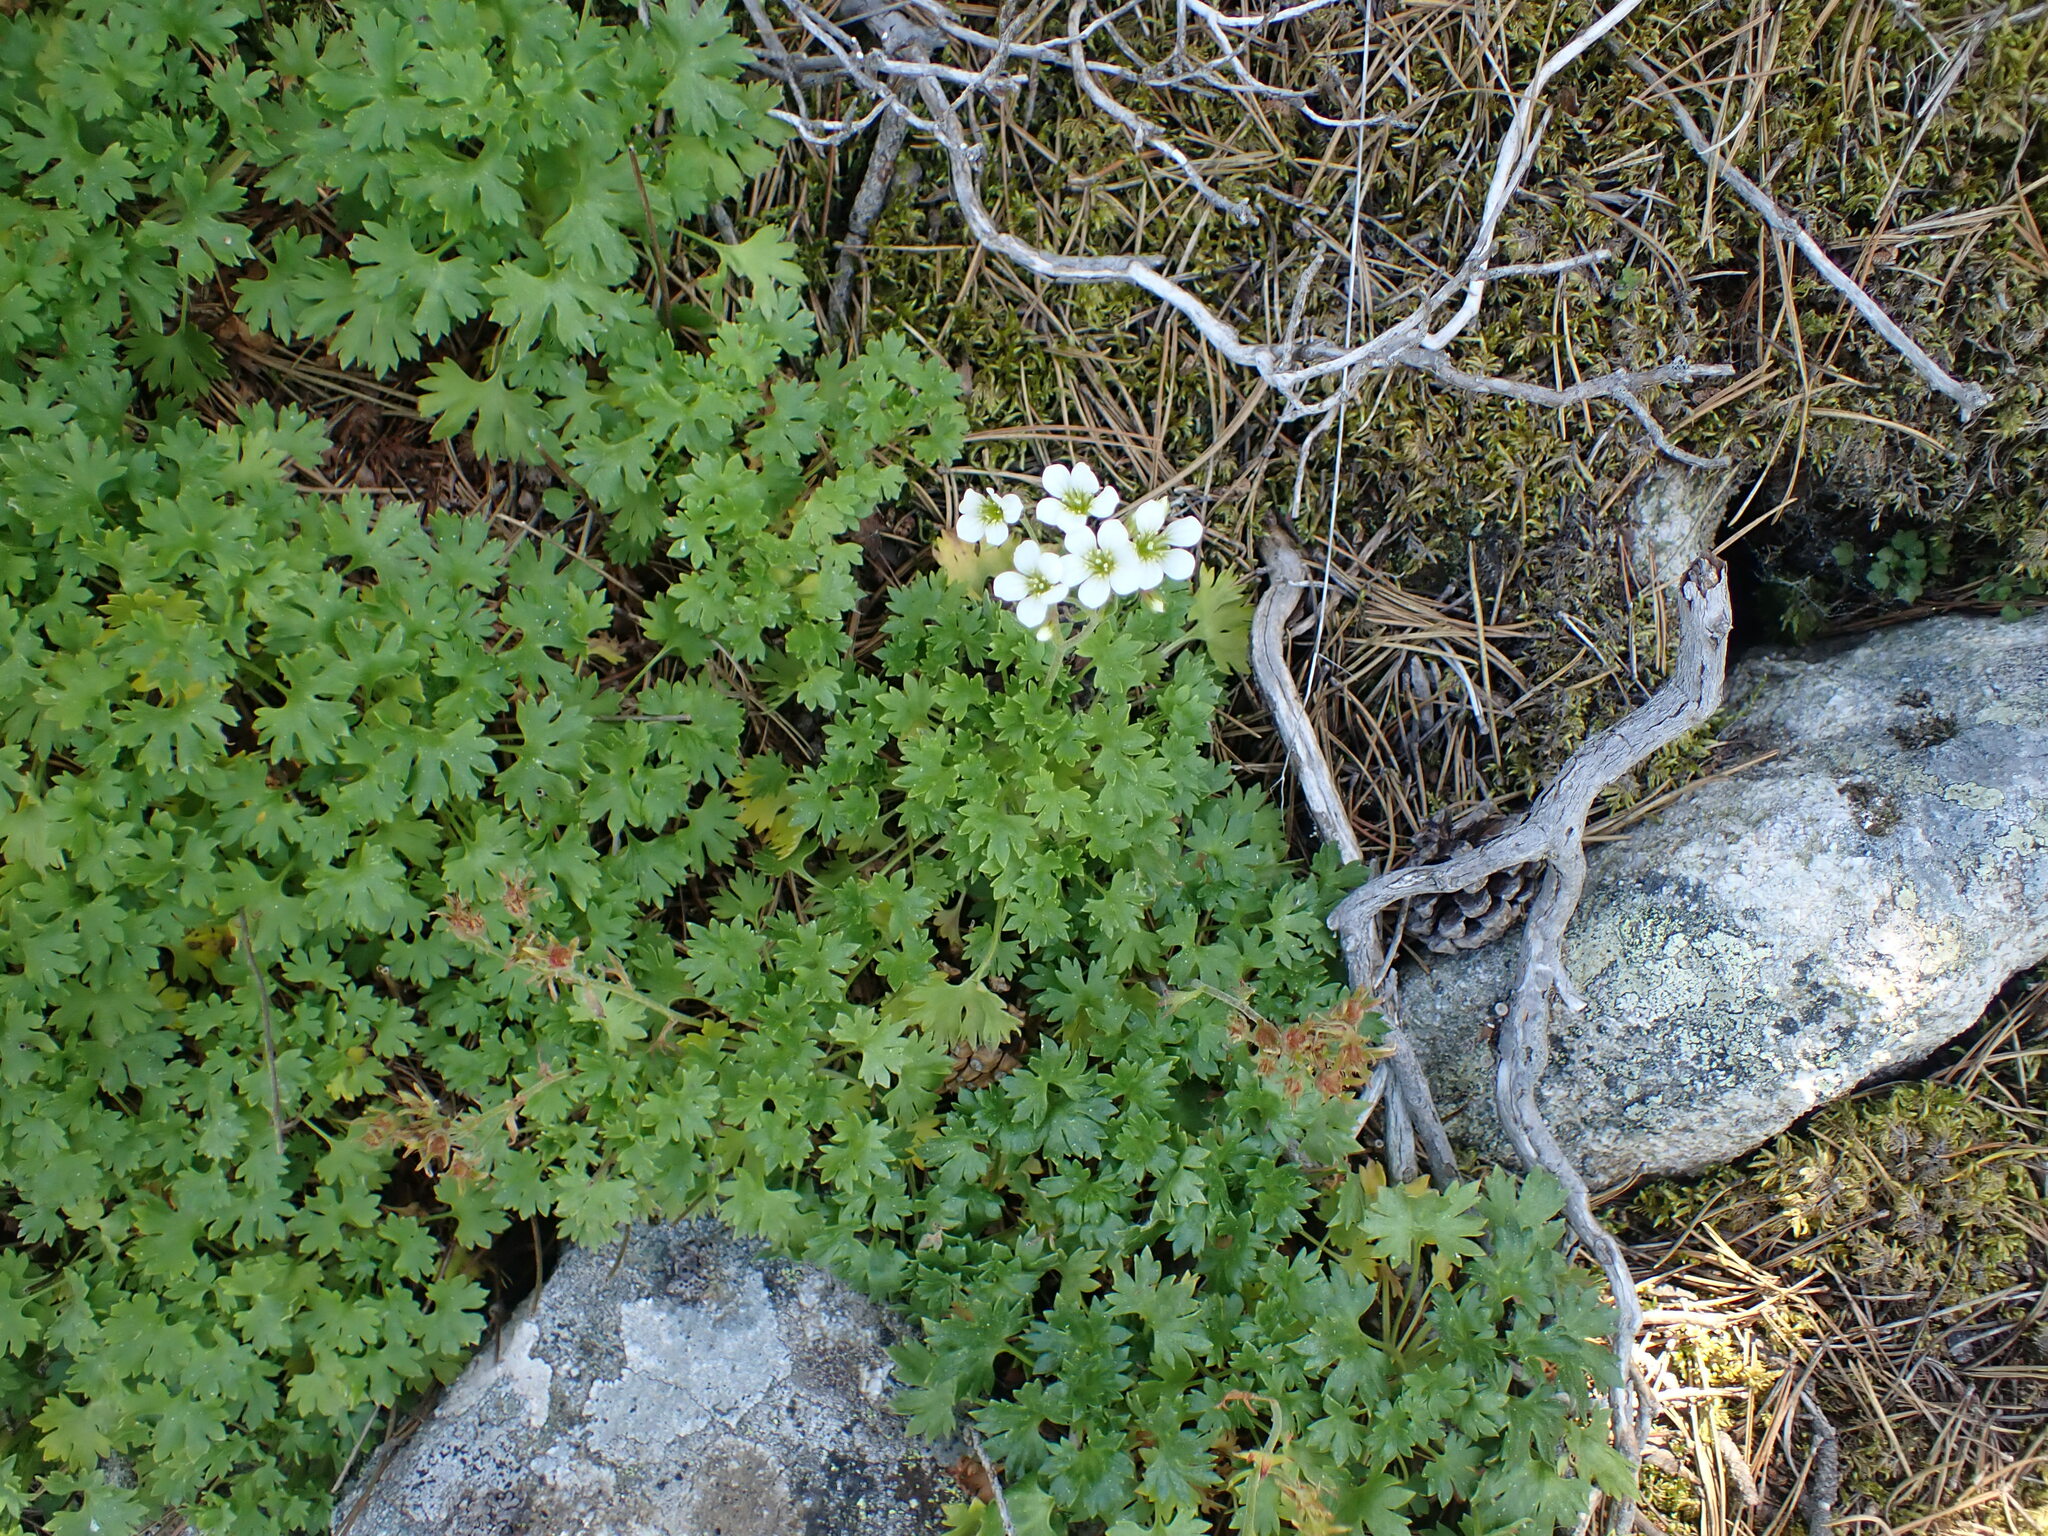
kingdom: Plantae
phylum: Tracheophyta
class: Magnoliopsida
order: Saxifragales
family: Saxifragaceae
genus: Saxifraga
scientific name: Saxifraga geranioides
